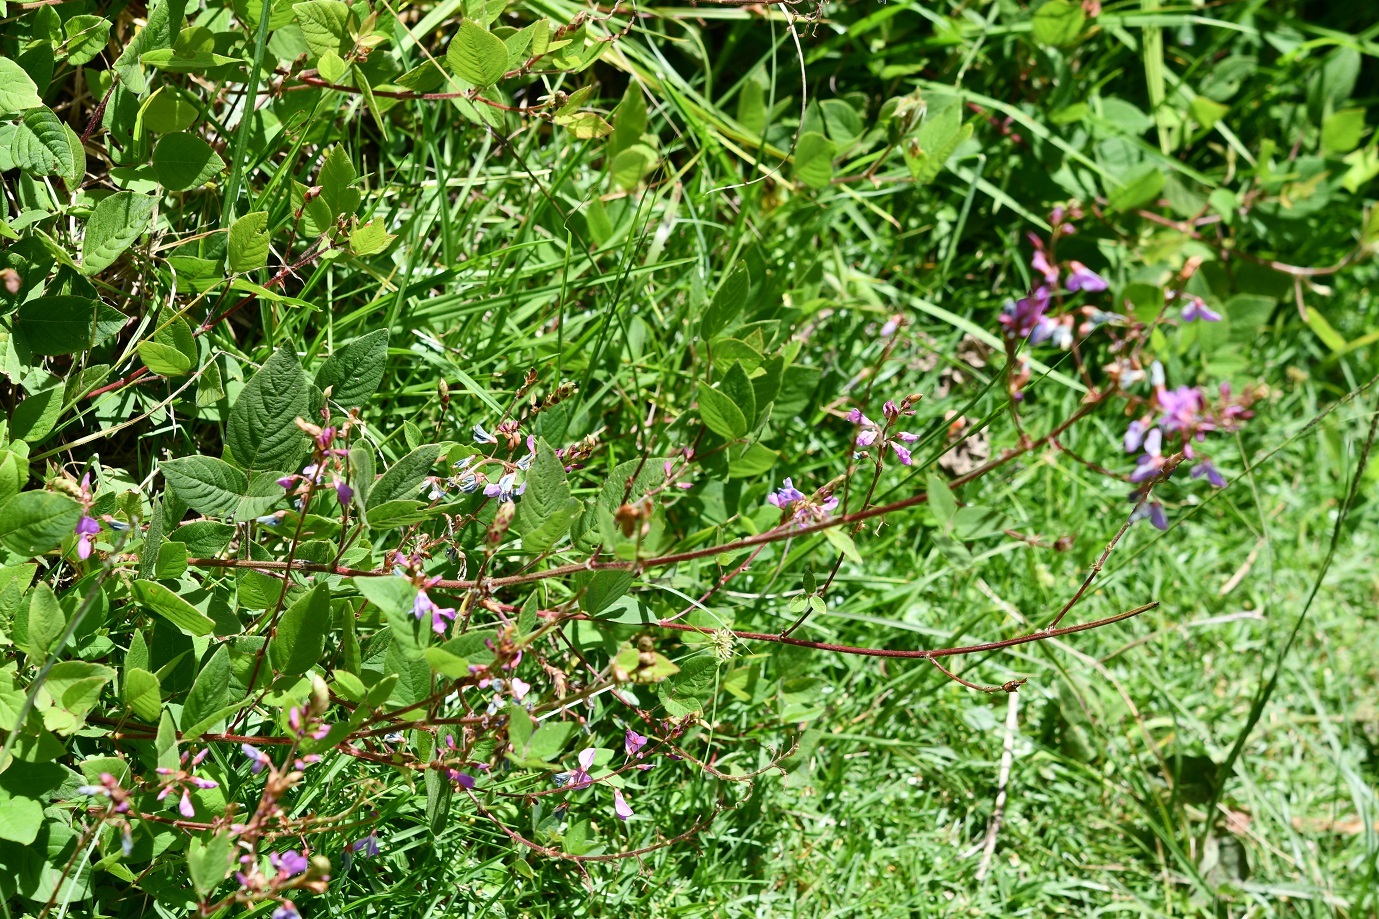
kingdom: Plantae
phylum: Tracheophyta
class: Magnoliopsida
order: Fabales
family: Fabaceae
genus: Desmodium
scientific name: Desmodium pringlei
